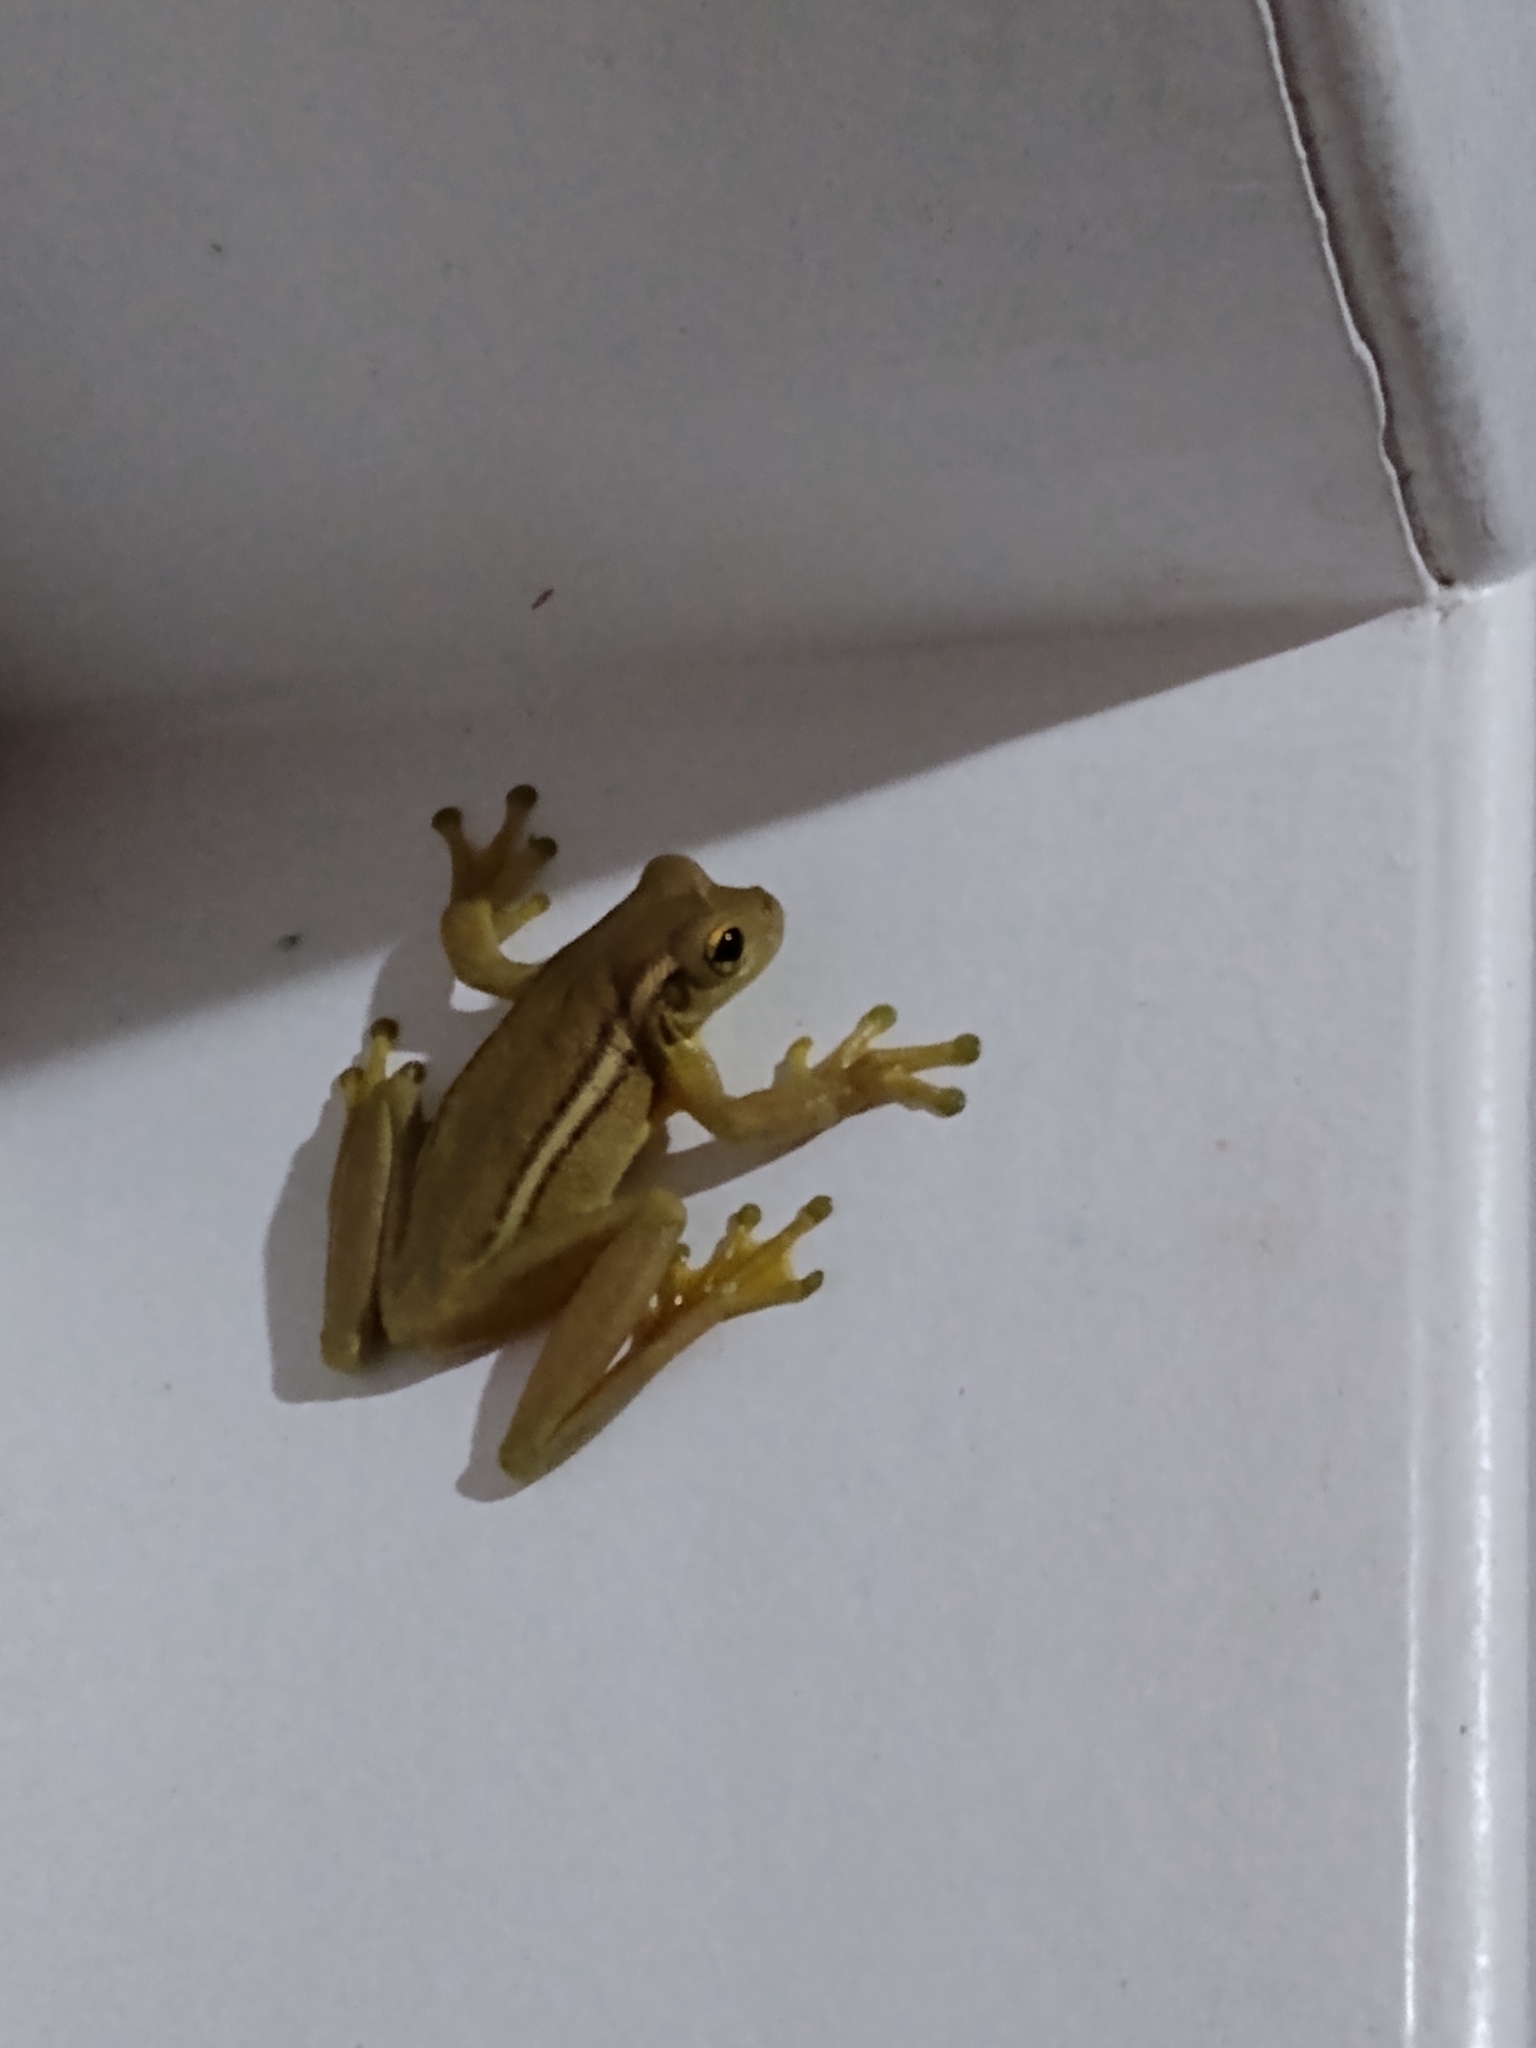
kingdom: Animalia
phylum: Chordata
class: Amphibia
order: Anura
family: Hylidae
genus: Trachycephalus
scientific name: Trachycephalus mesophaeus
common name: Porto alegre golden-eyed treefrog
